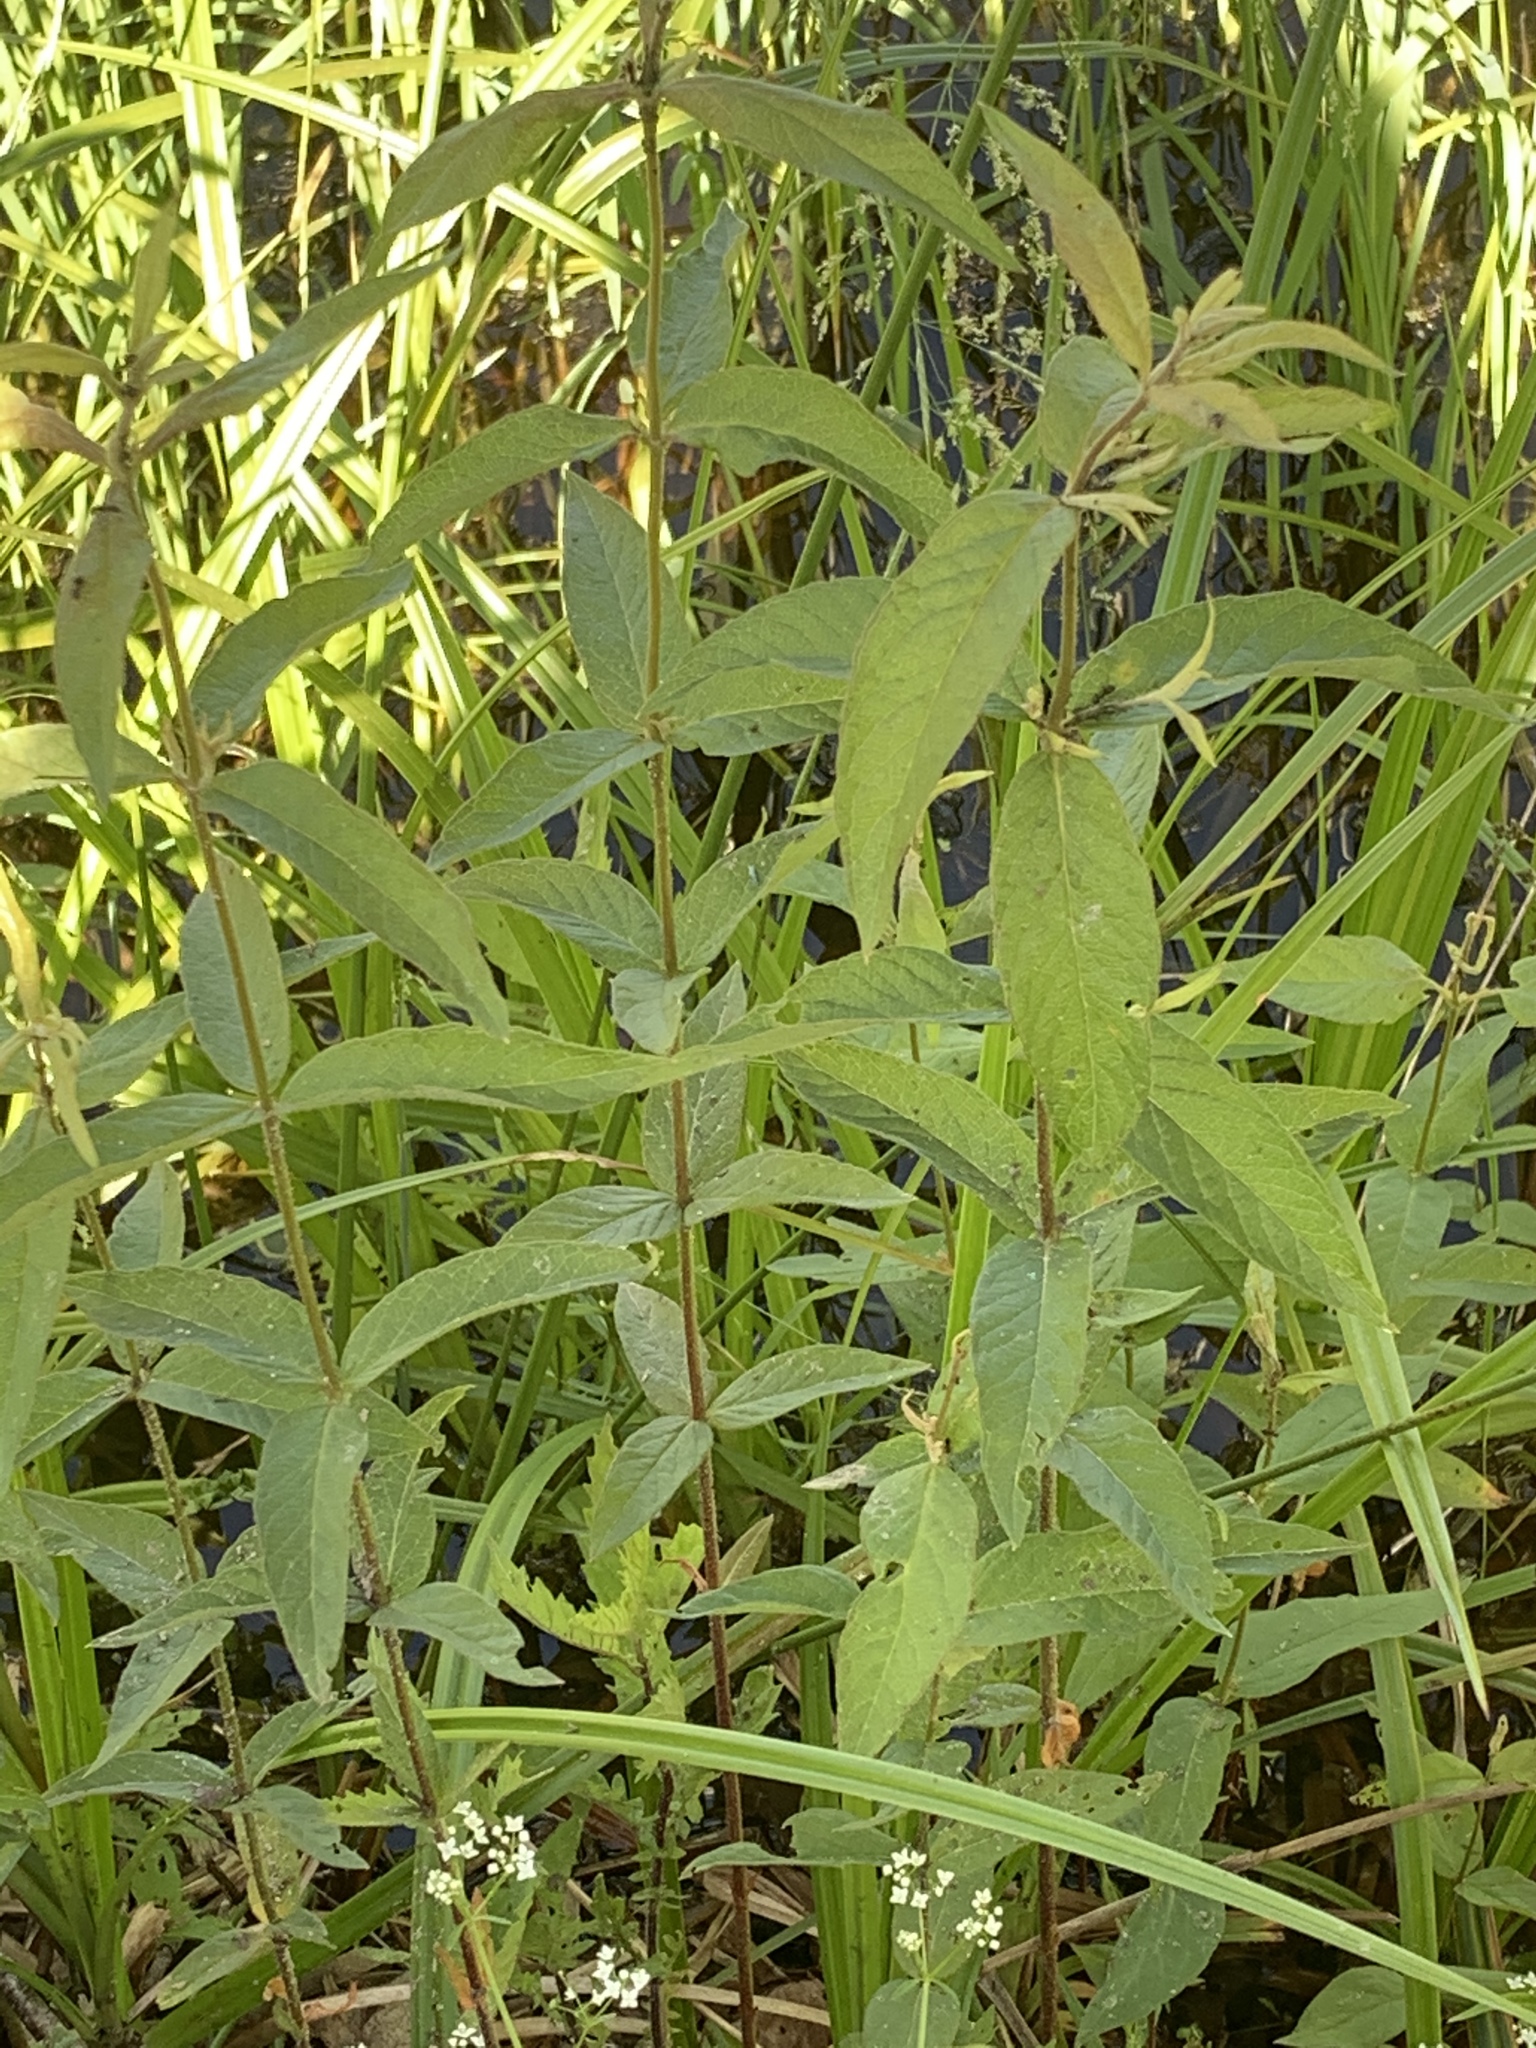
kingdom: Plantae
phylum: Tracheophyta
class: Magnoliopsida
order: Ericales
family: Primulaceae
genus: Lysimachia
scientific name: Lysimachia vulgaris
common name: Yellow loosestrife
